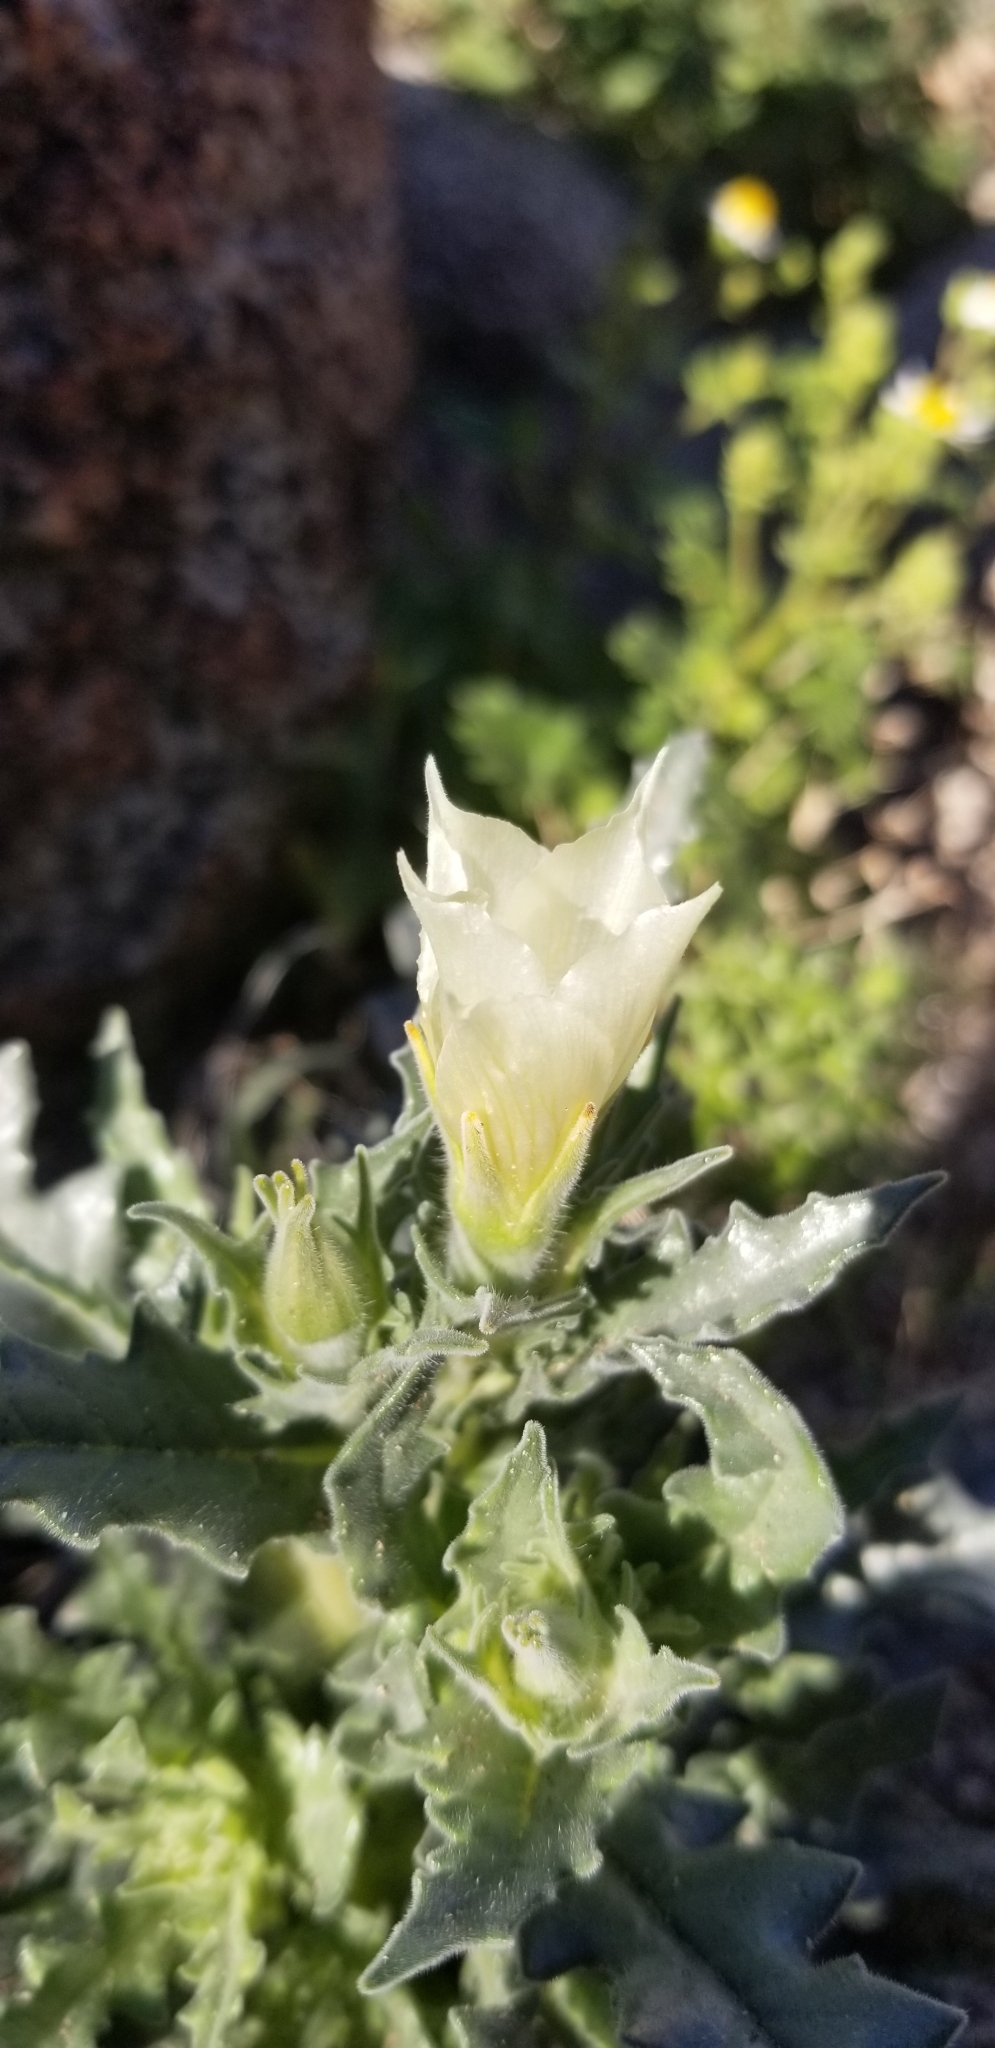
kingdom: Plantae
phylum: Tracheophyta
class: Magnoliopsida
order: Cornales
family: Loasaceae
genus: Mentzelia
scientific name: Mentzelia involucrata
